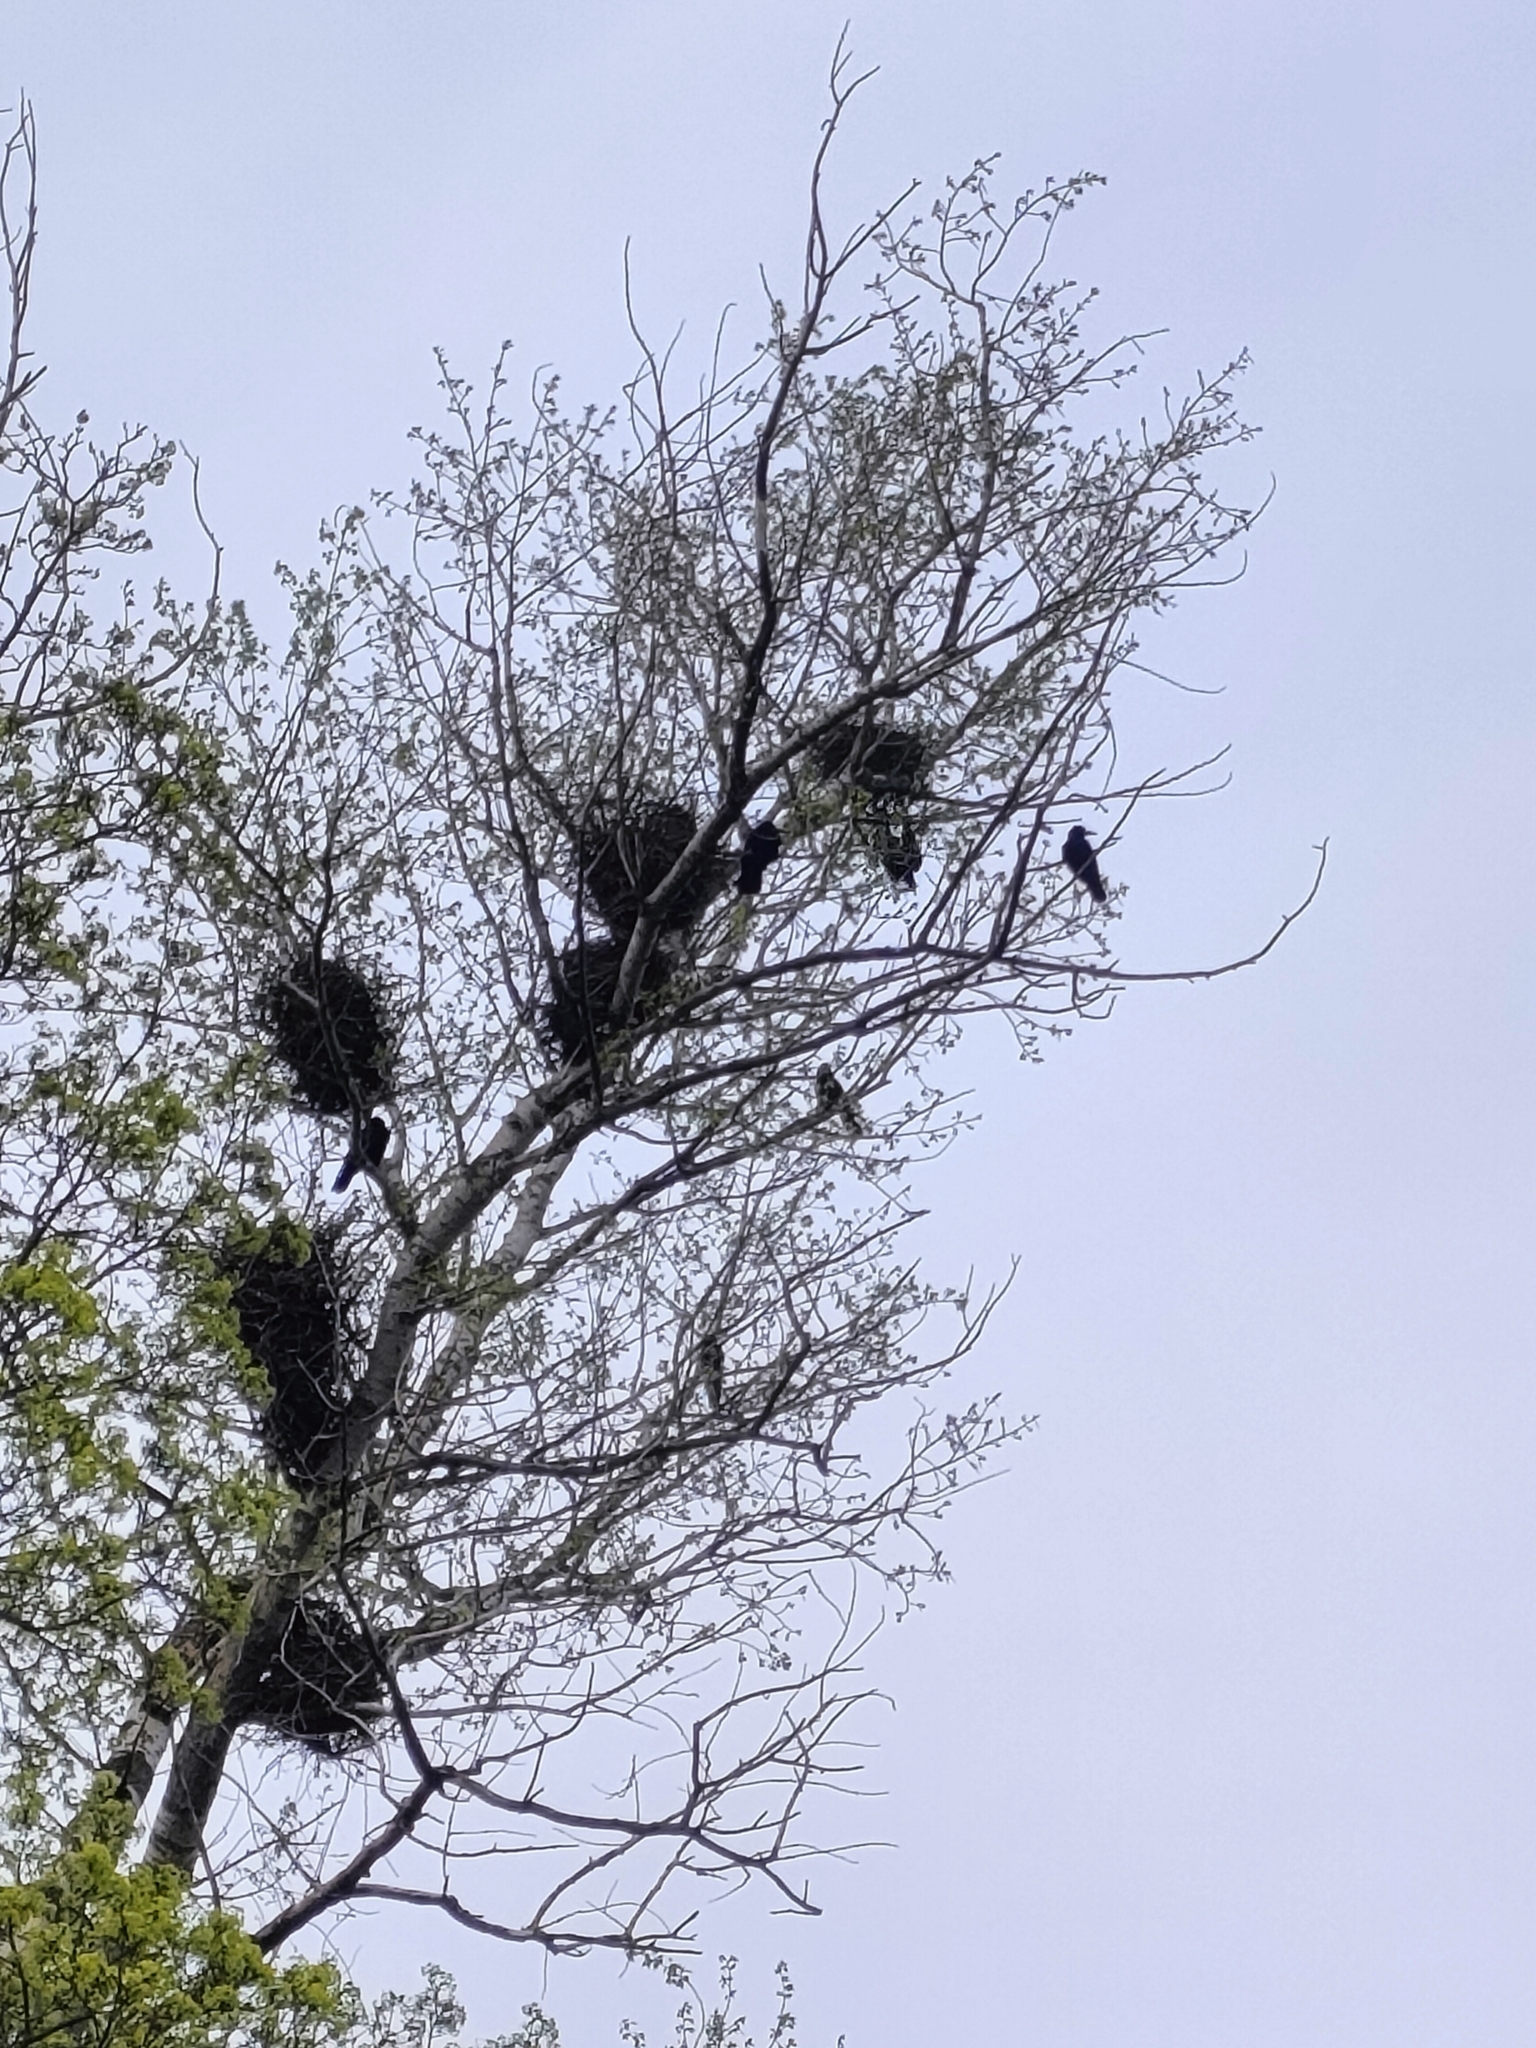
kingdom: Animalia
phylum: Chordata
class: Aves
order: Passeriformes
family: Corvidae
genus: Corvus
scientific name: Corvus frugilegus
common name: Rook
